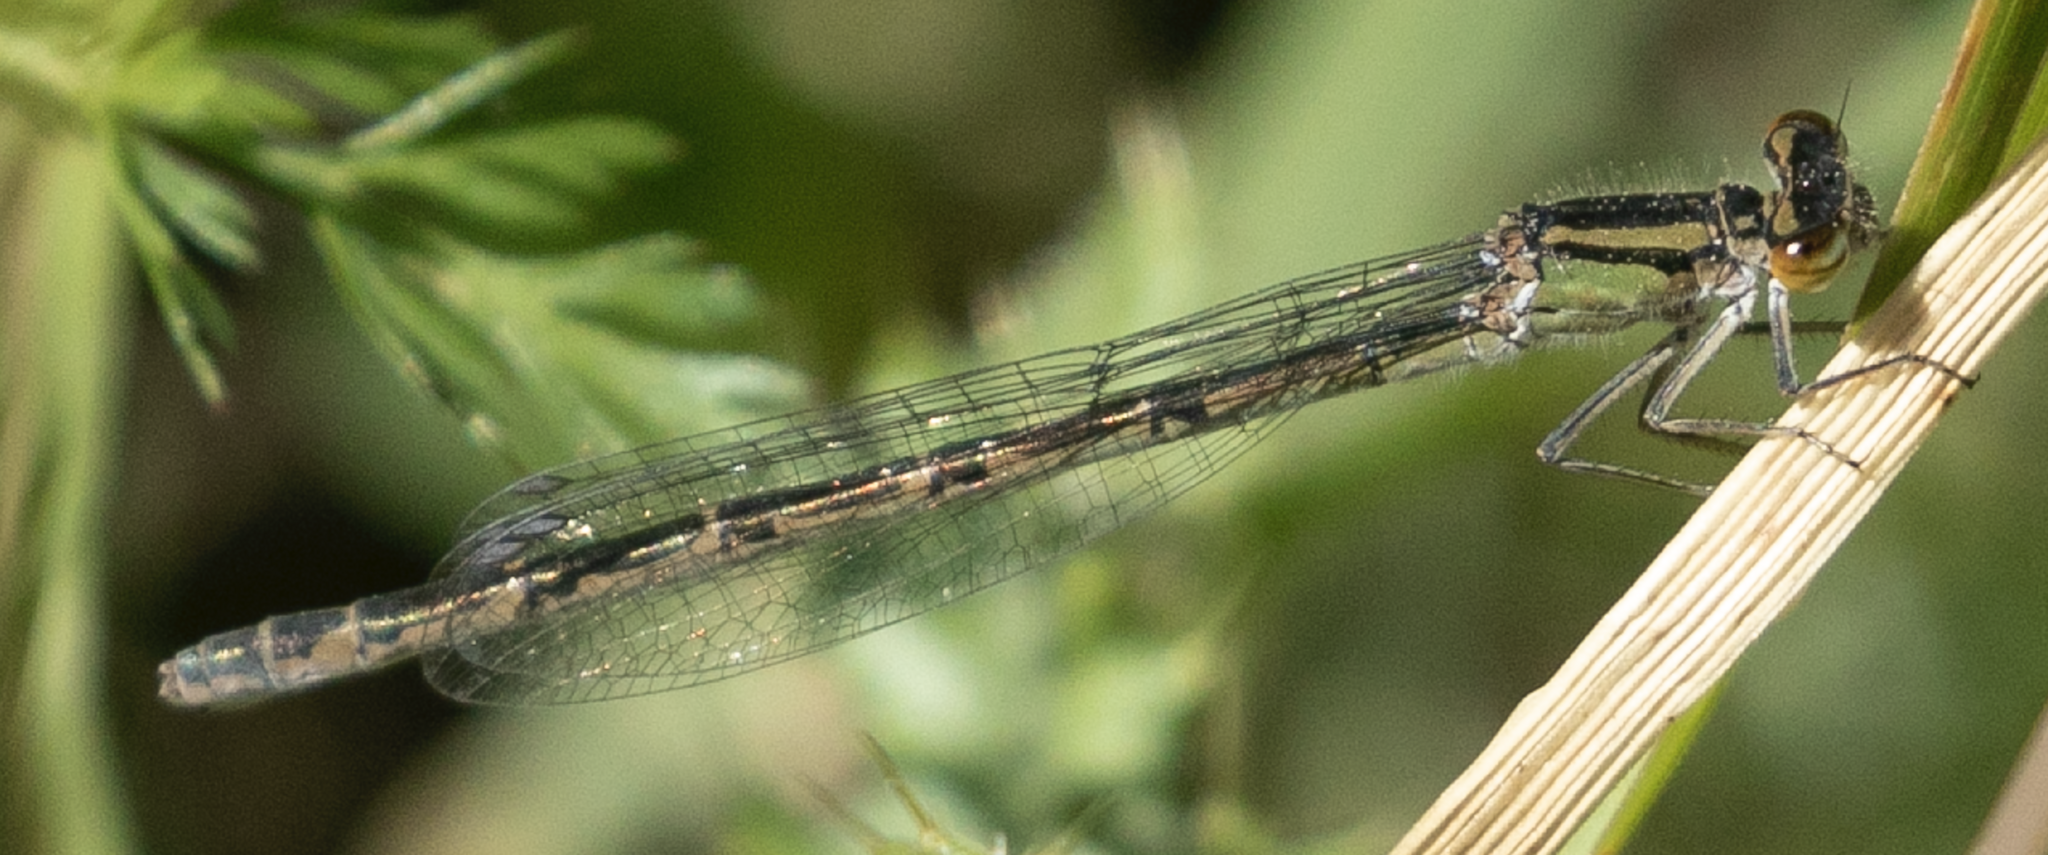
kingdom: Animalia
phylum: Arthropoda
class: Insecta
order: Odonata
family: Coenagrionidae
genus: Enallagma
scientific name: Enallagma cyathigerum
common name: Common blue damselfly
